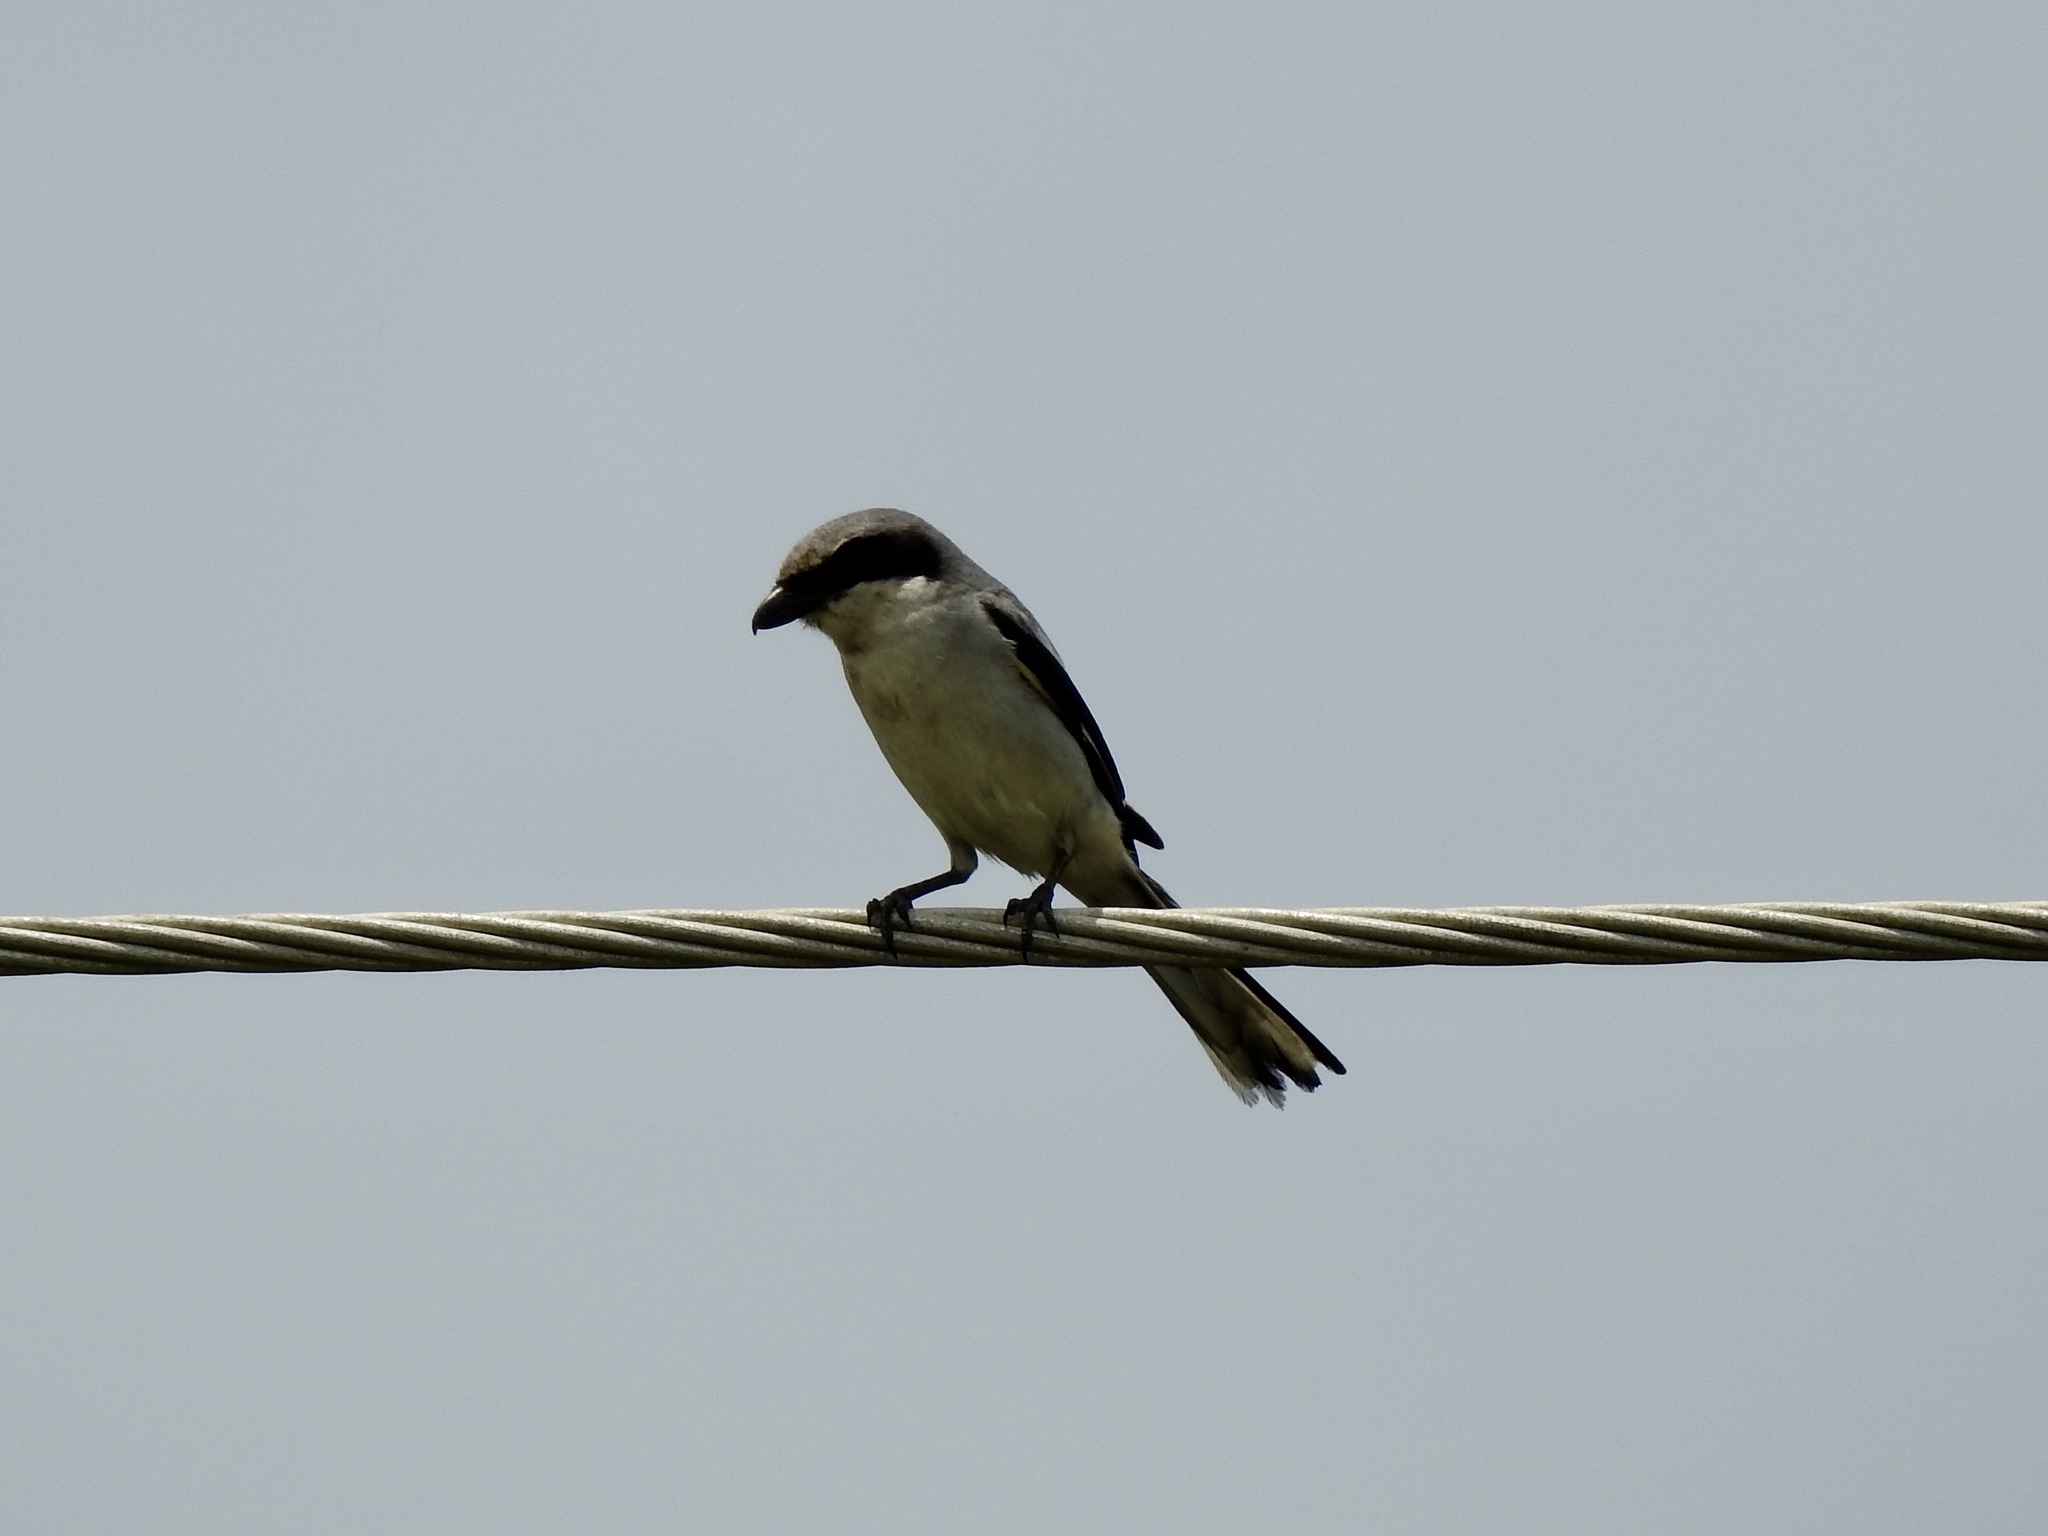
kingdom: Animalia
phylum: Chordata
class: Aves
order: Passeriformes
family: Laniidae
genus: Lanius
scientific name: Lanius ludovicianus
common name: Loggerhead shrike
